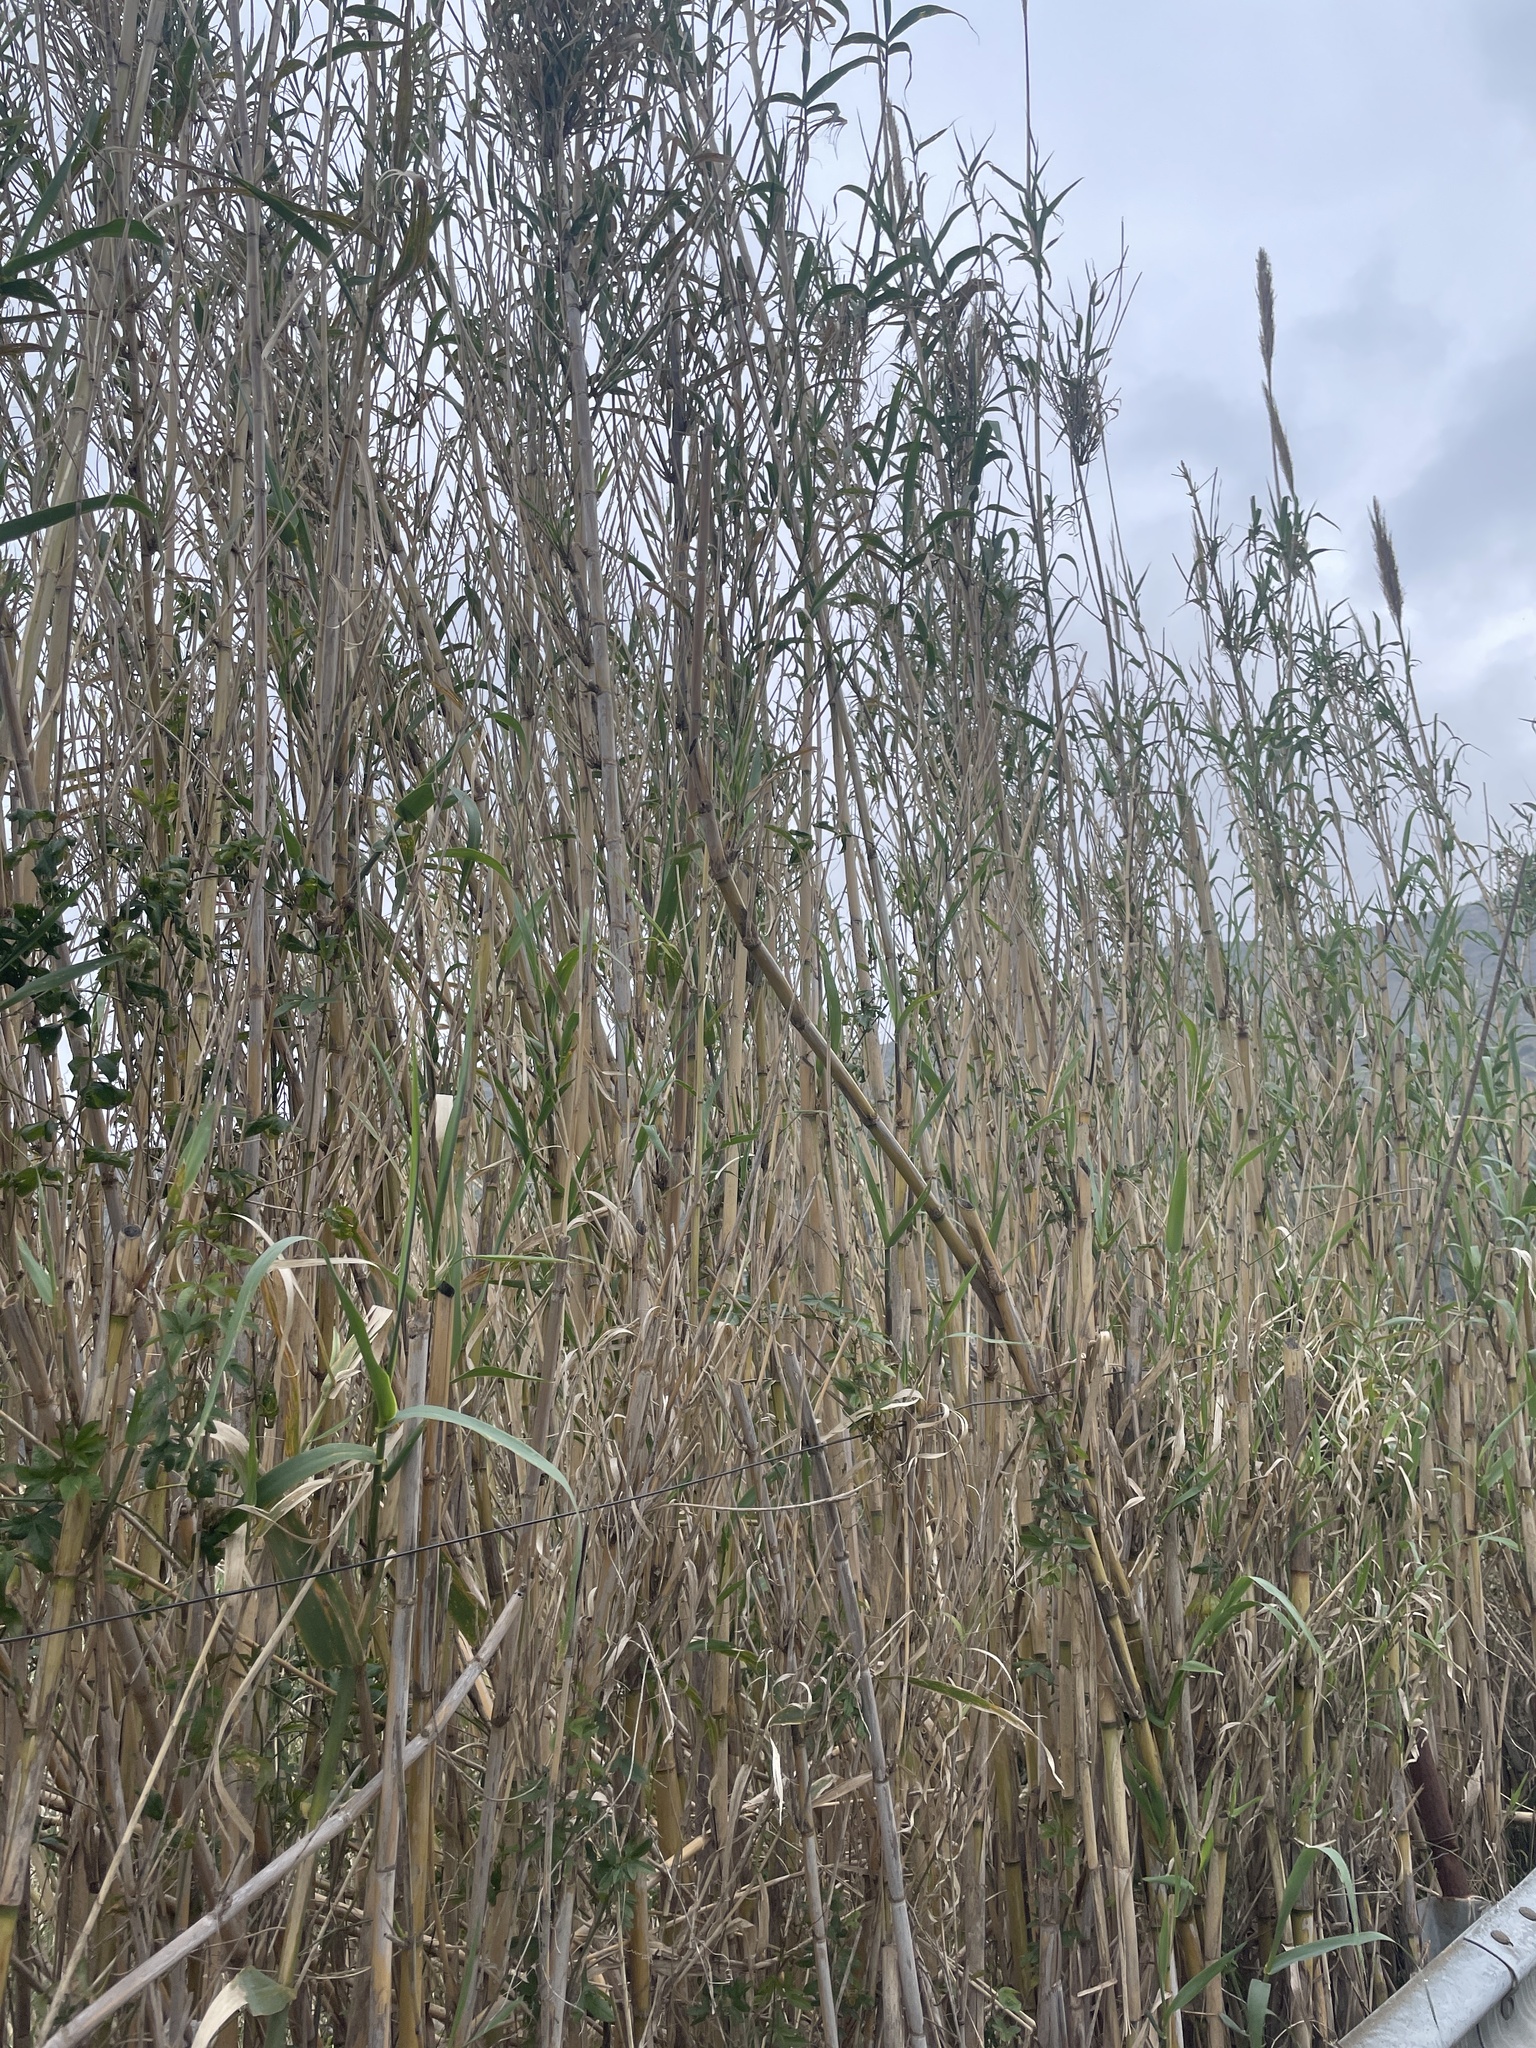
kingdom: Plantae
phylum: Tracheophyta
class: Liliopsida
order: Poales
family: Poaceae
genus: Arundo
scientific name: Arundo donax
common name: Giant reed
